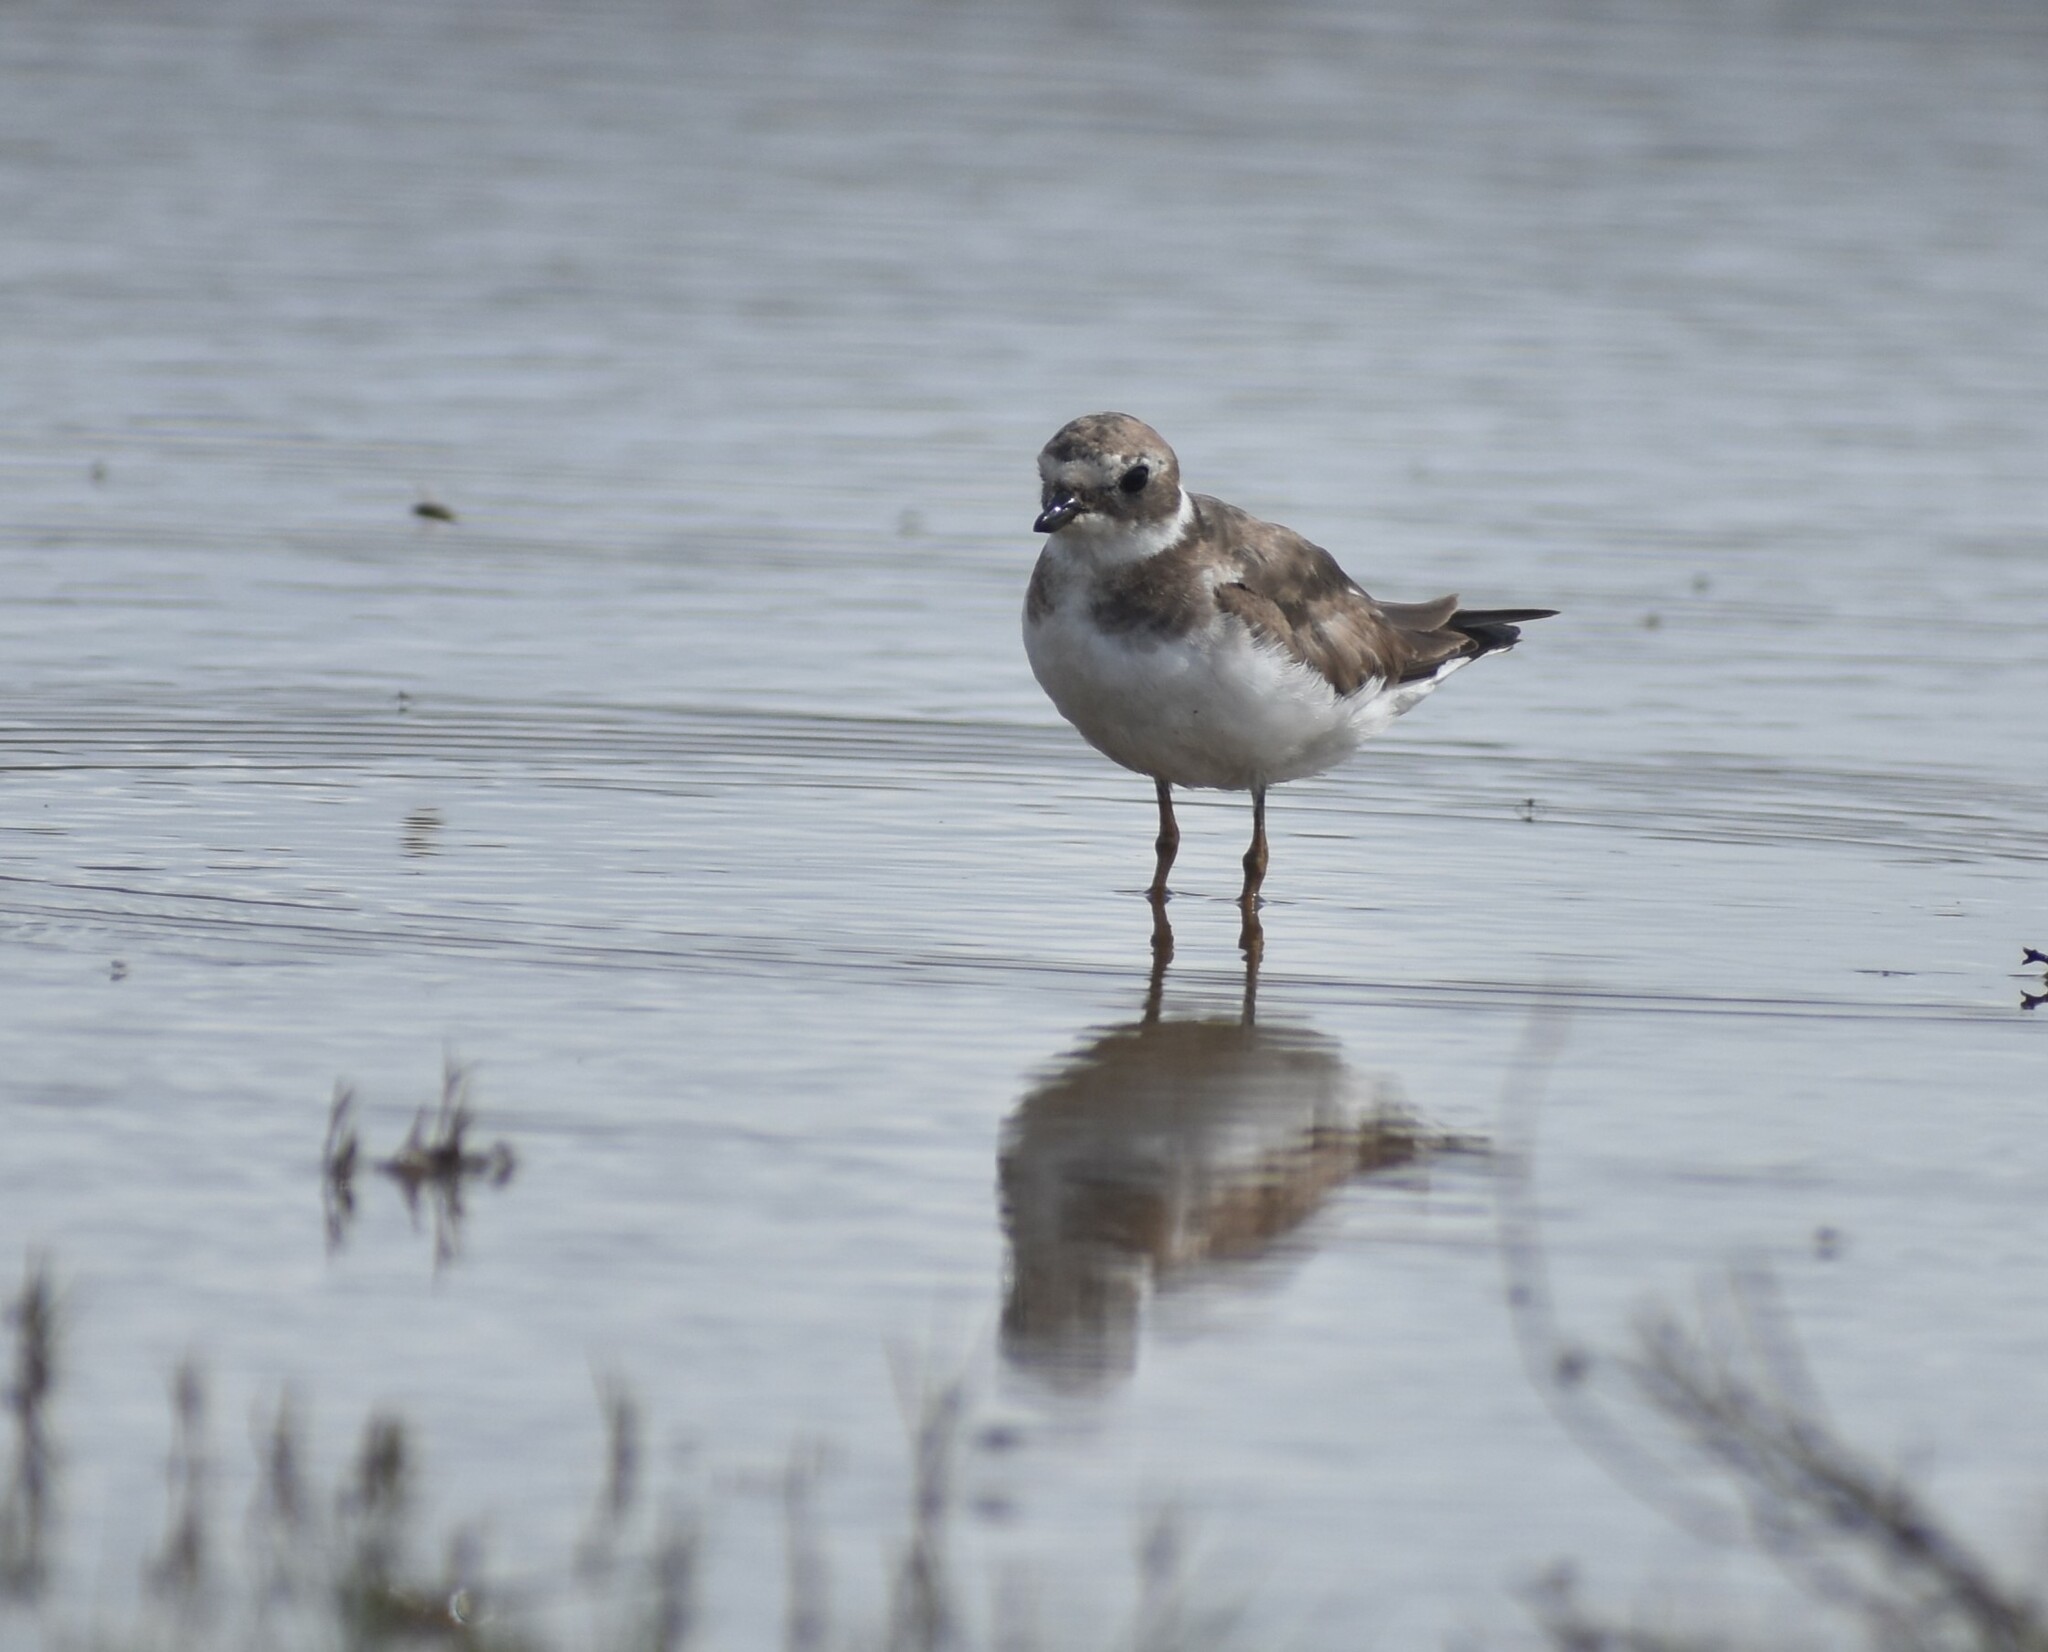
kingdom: Animalia
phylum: Chordata
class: Aves
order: Charadriiformes
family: Charadriidae
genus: Charadrius
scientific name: Charadrius hiaticula
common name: Common ringed plover
